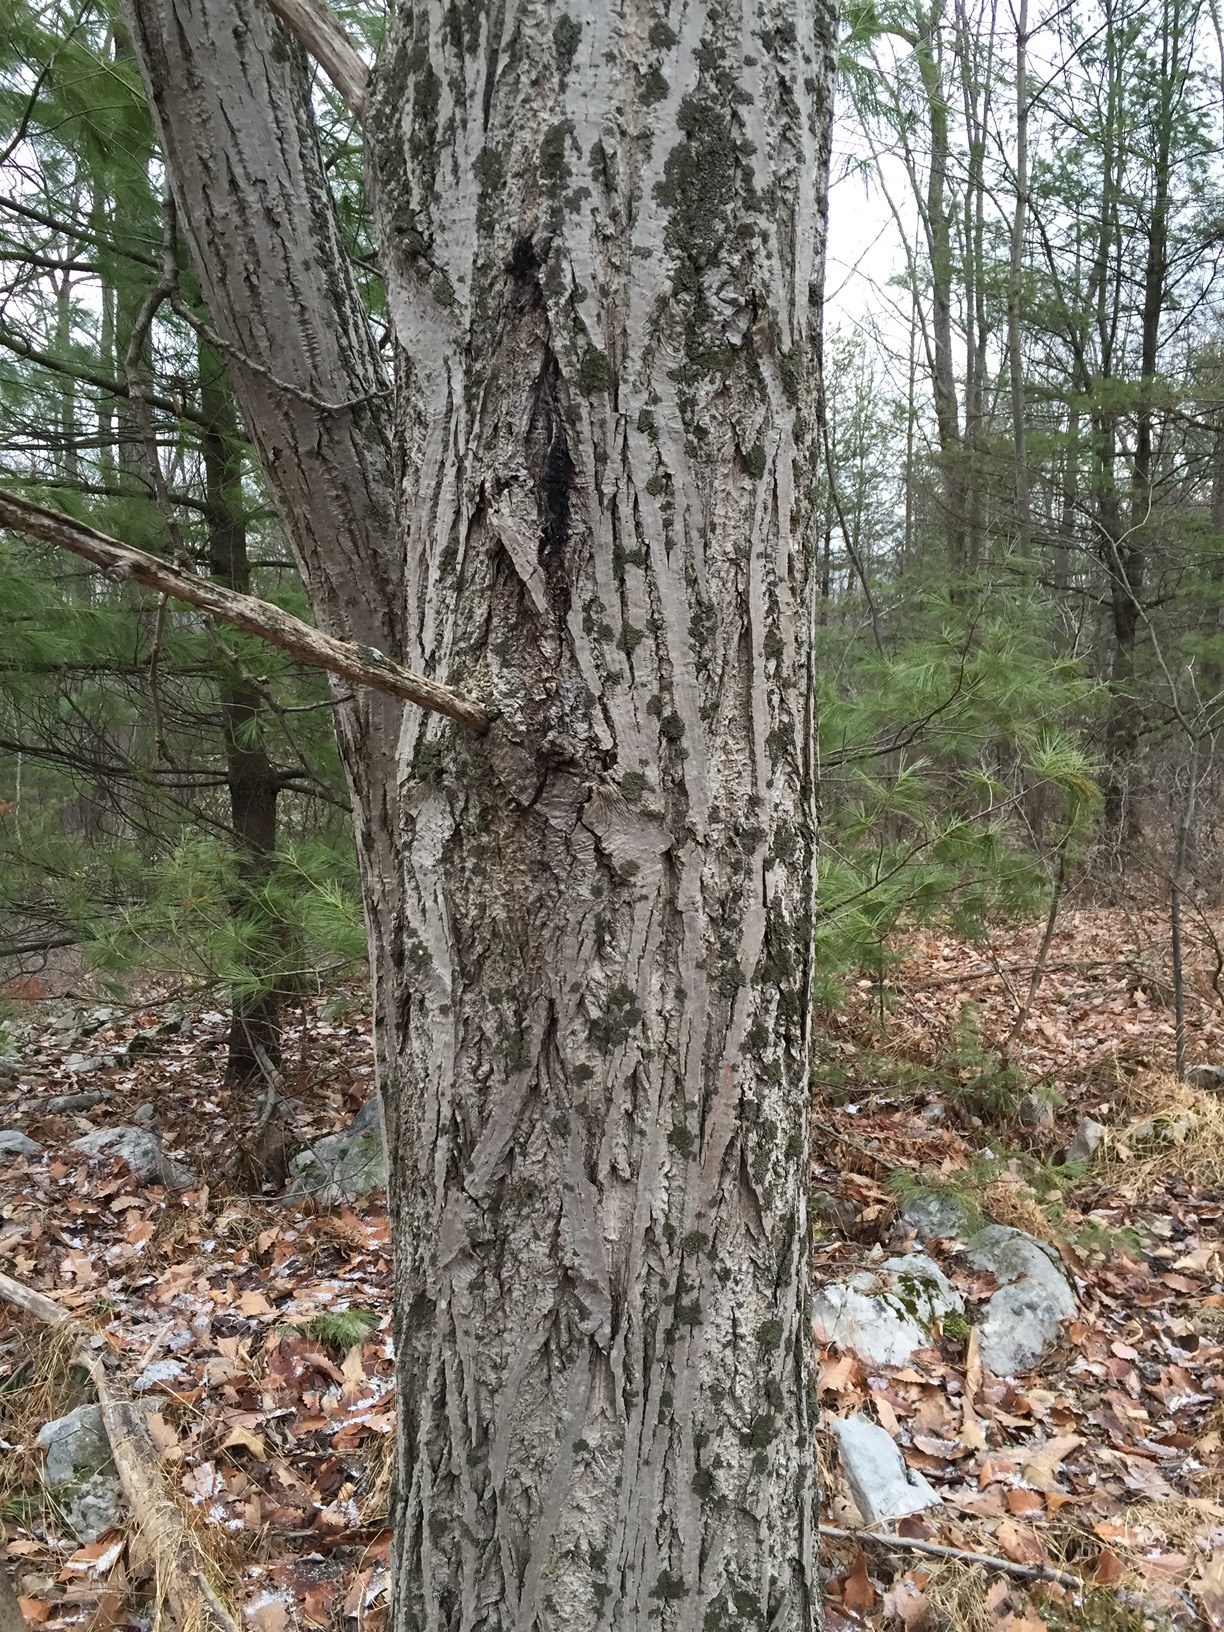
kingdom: Plantae
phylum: Tracheophyta
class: Magnoliopsida
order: Fagales
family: Juglandaceae
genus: Juglans
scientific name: Juglans cinerea
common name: Butternut
